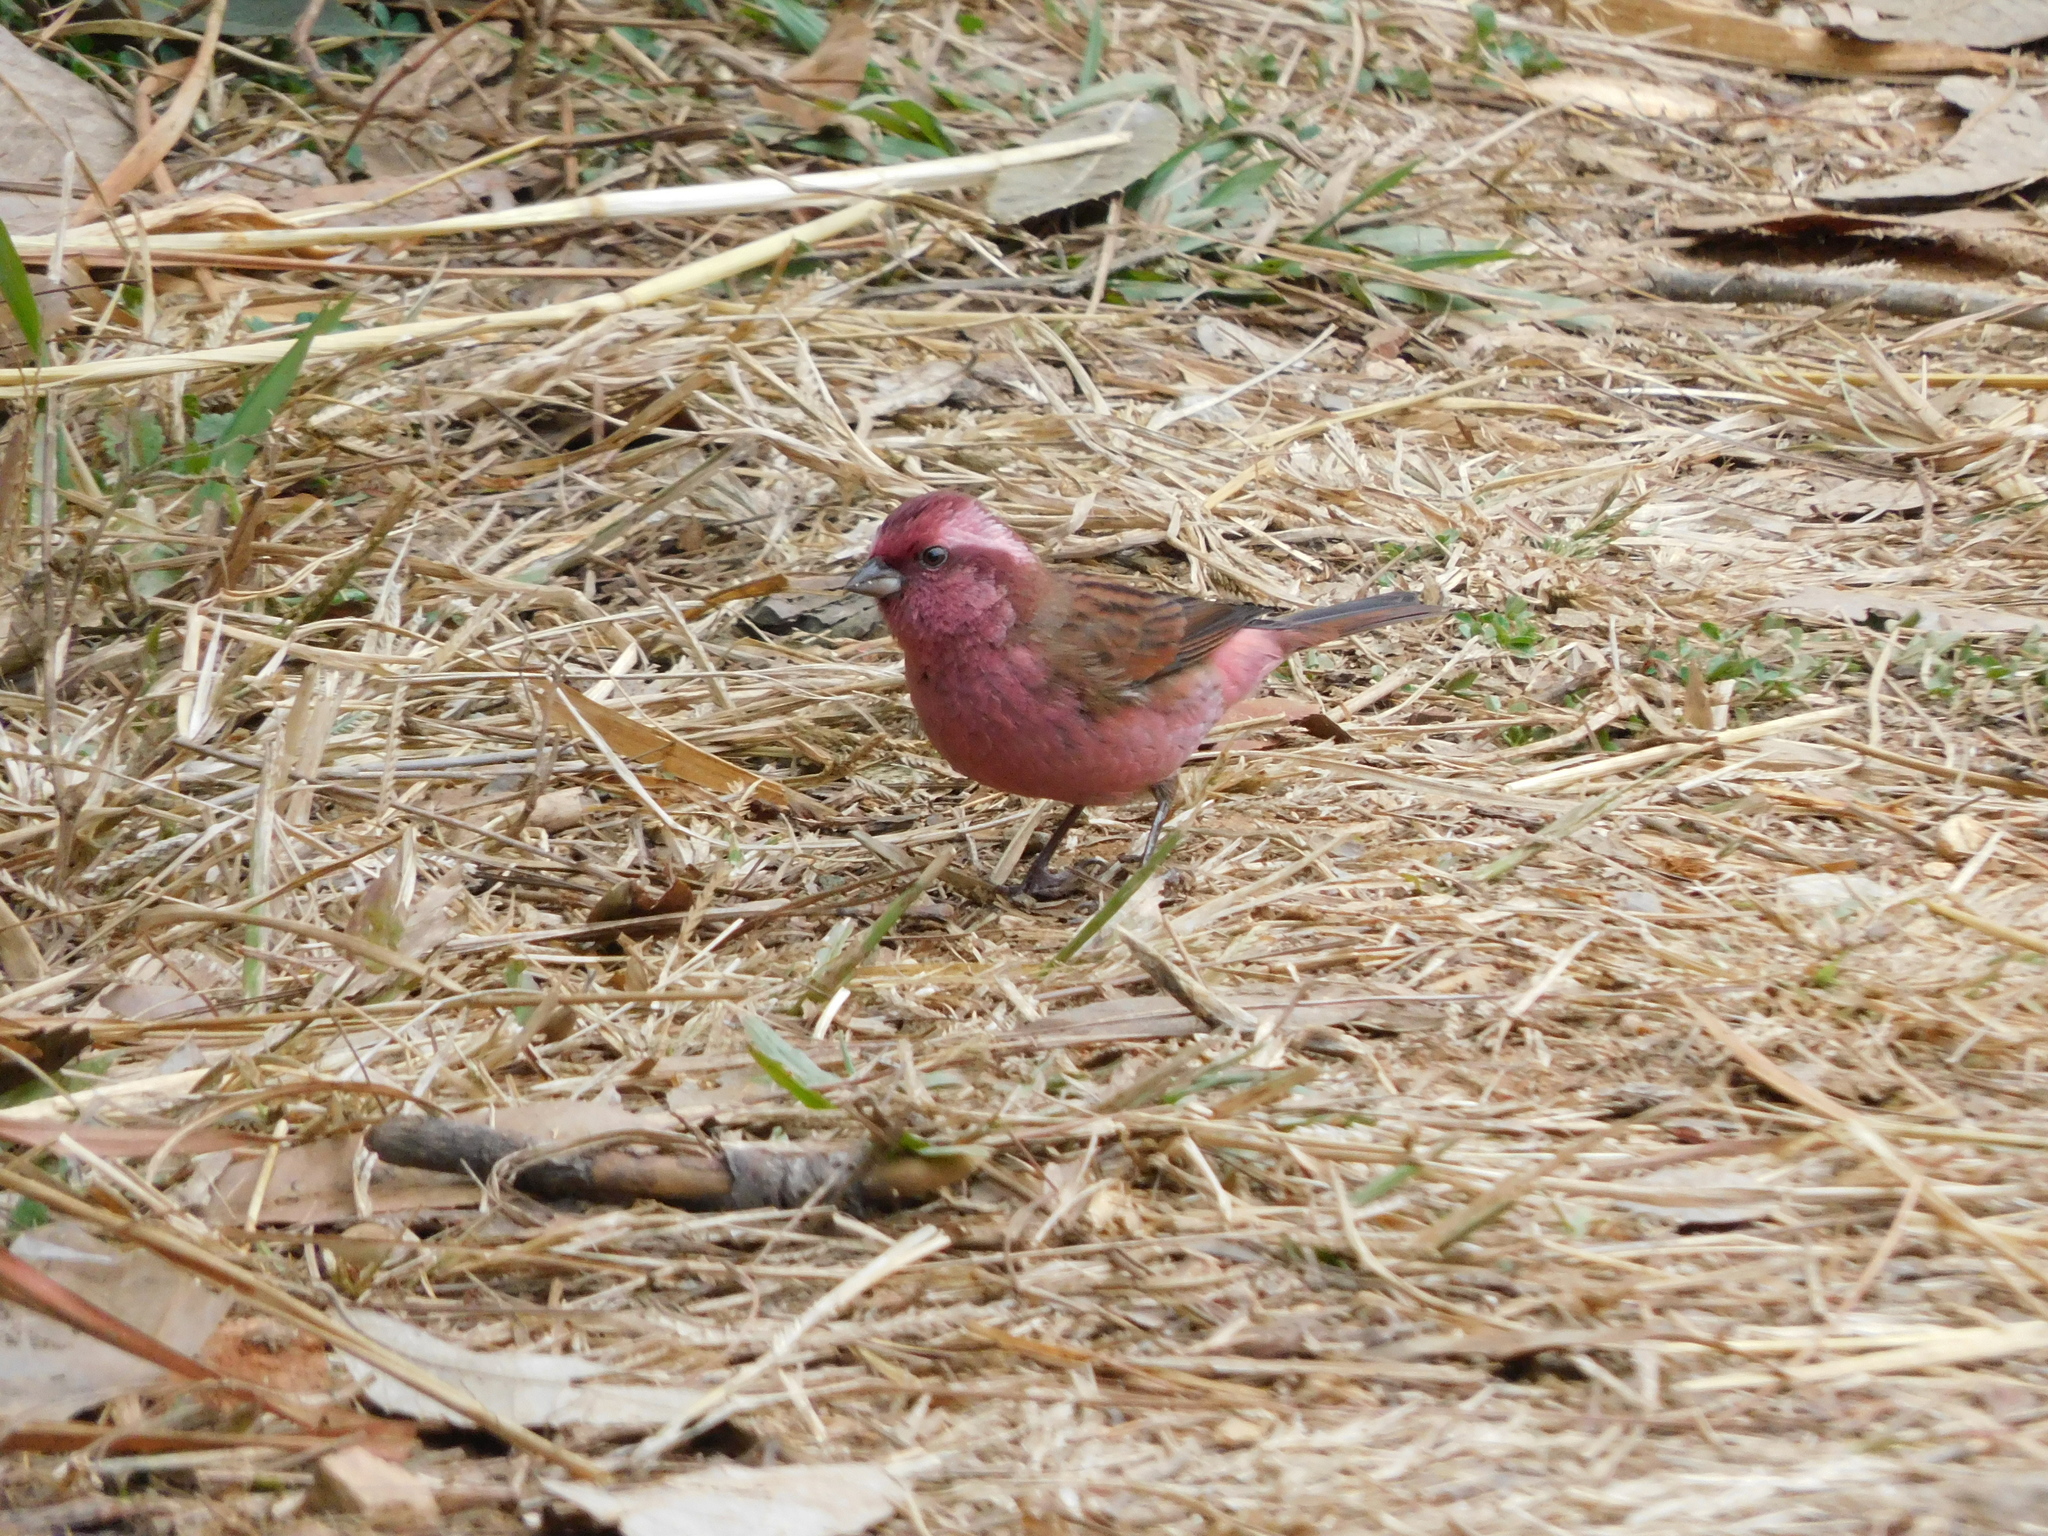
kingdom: Animalia
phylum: Chordata
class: Aves
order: Passeriformes
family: Fringillidae
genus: Carpodacus
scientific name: Carpodacus rodochroa
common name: Pink-browed rosefinch
